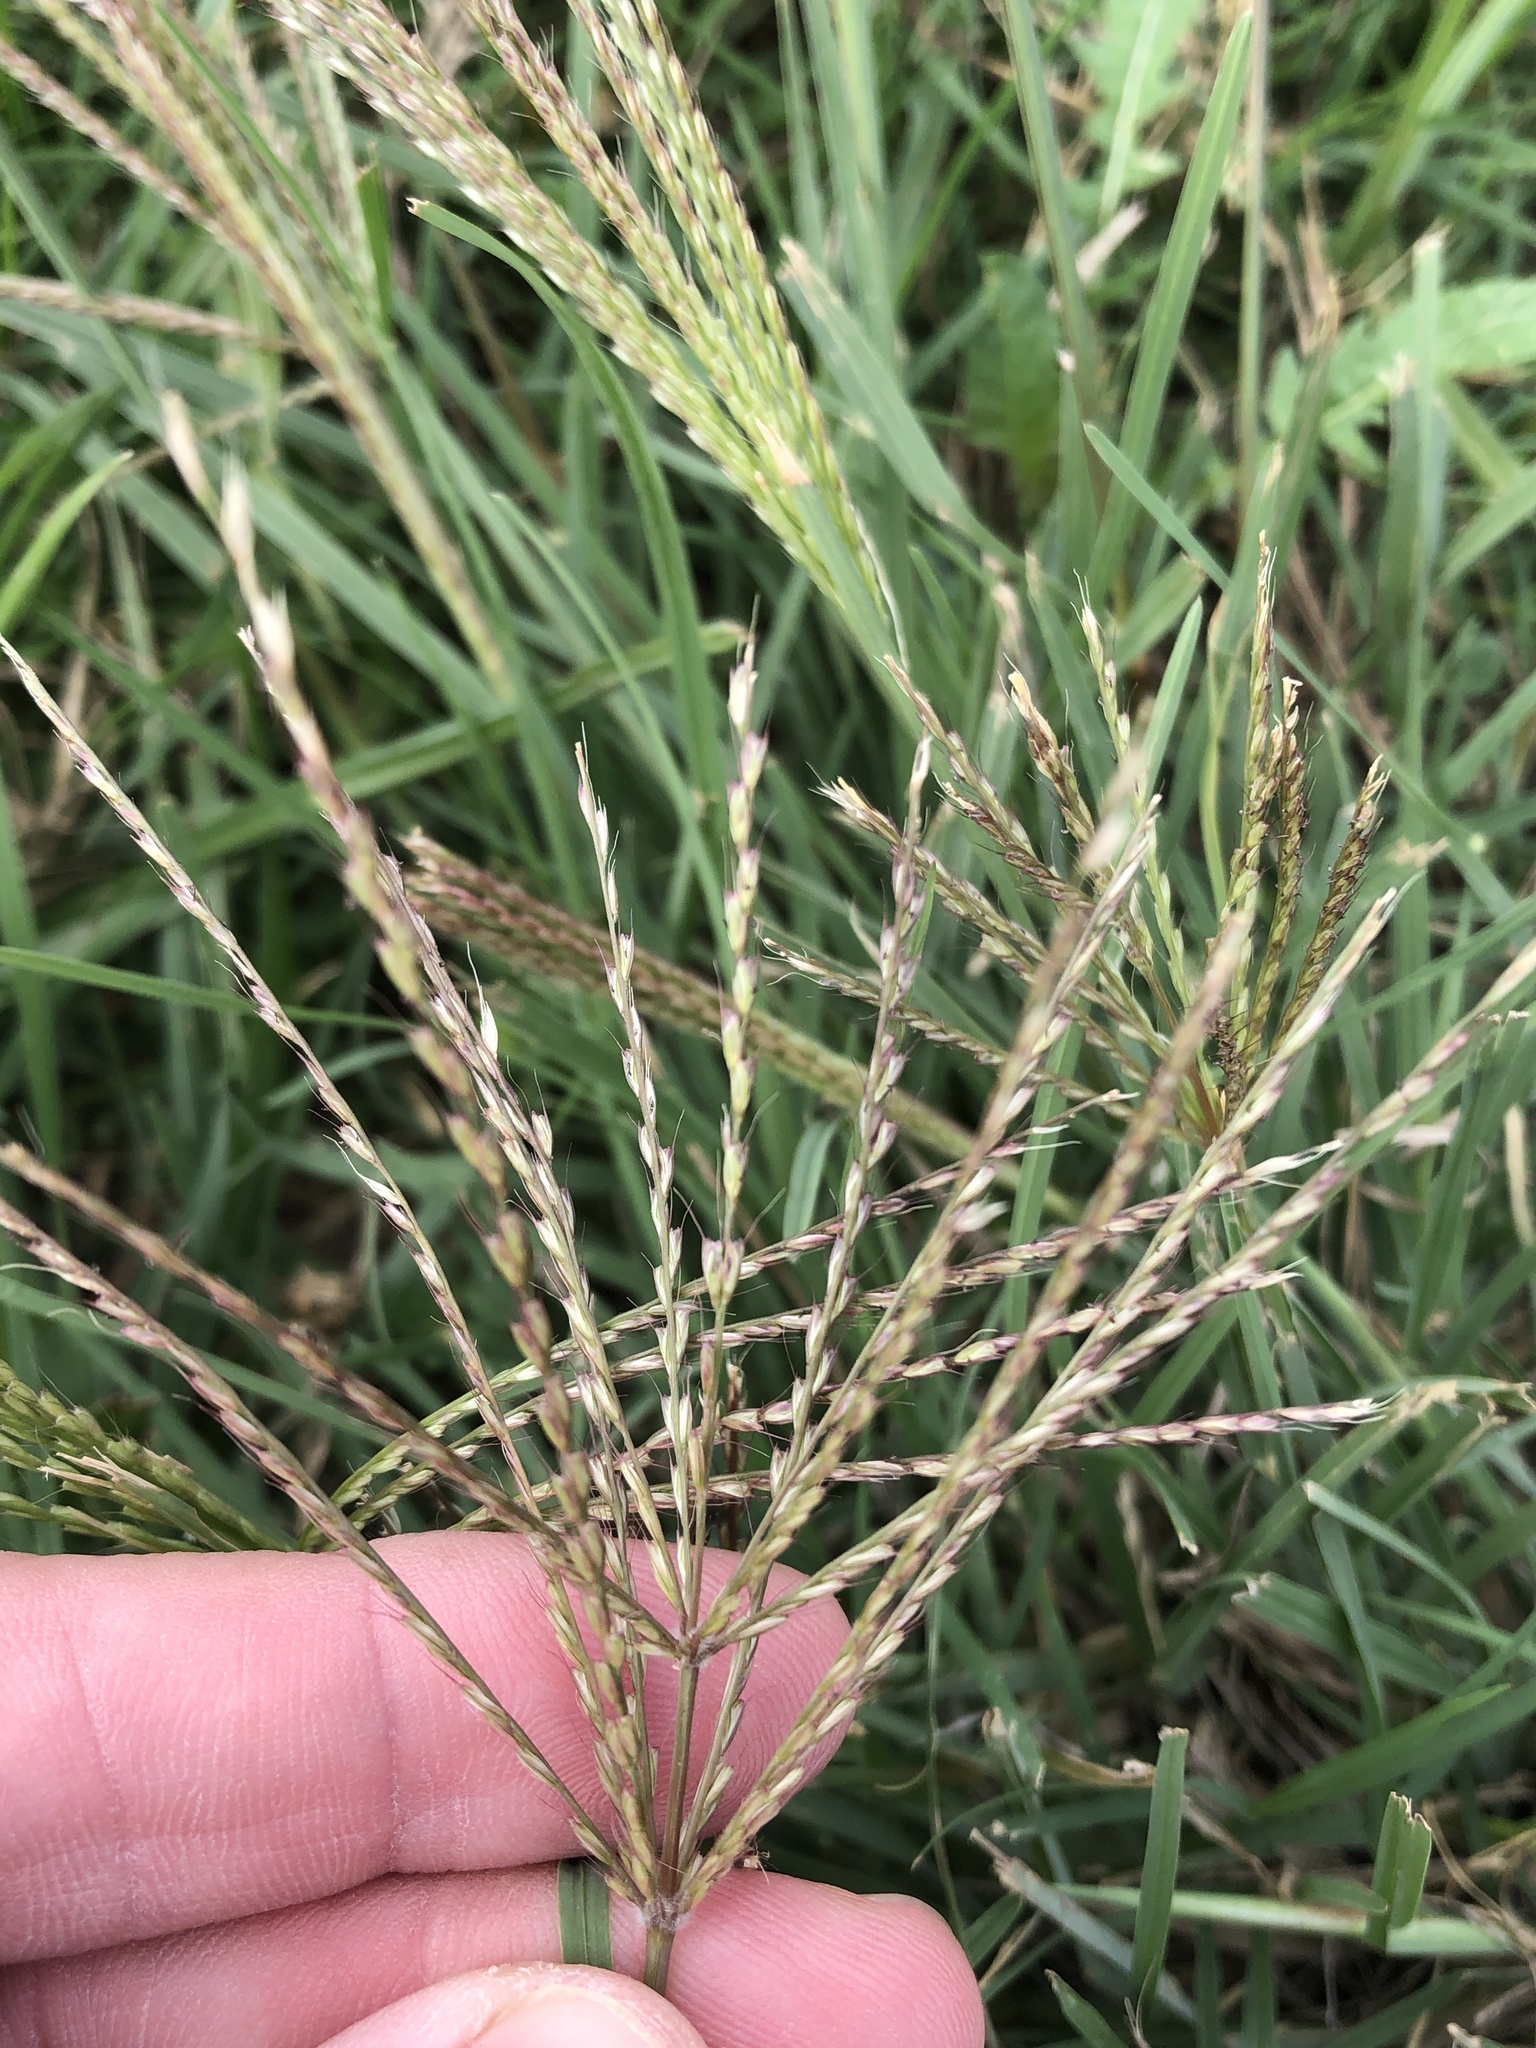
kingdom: Plantae
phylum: Tracheophyta
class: Liliopsida
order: Poales
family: Poaceae
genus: Chloris
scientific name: Chloris verticillata
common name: Tumble windmill grass
